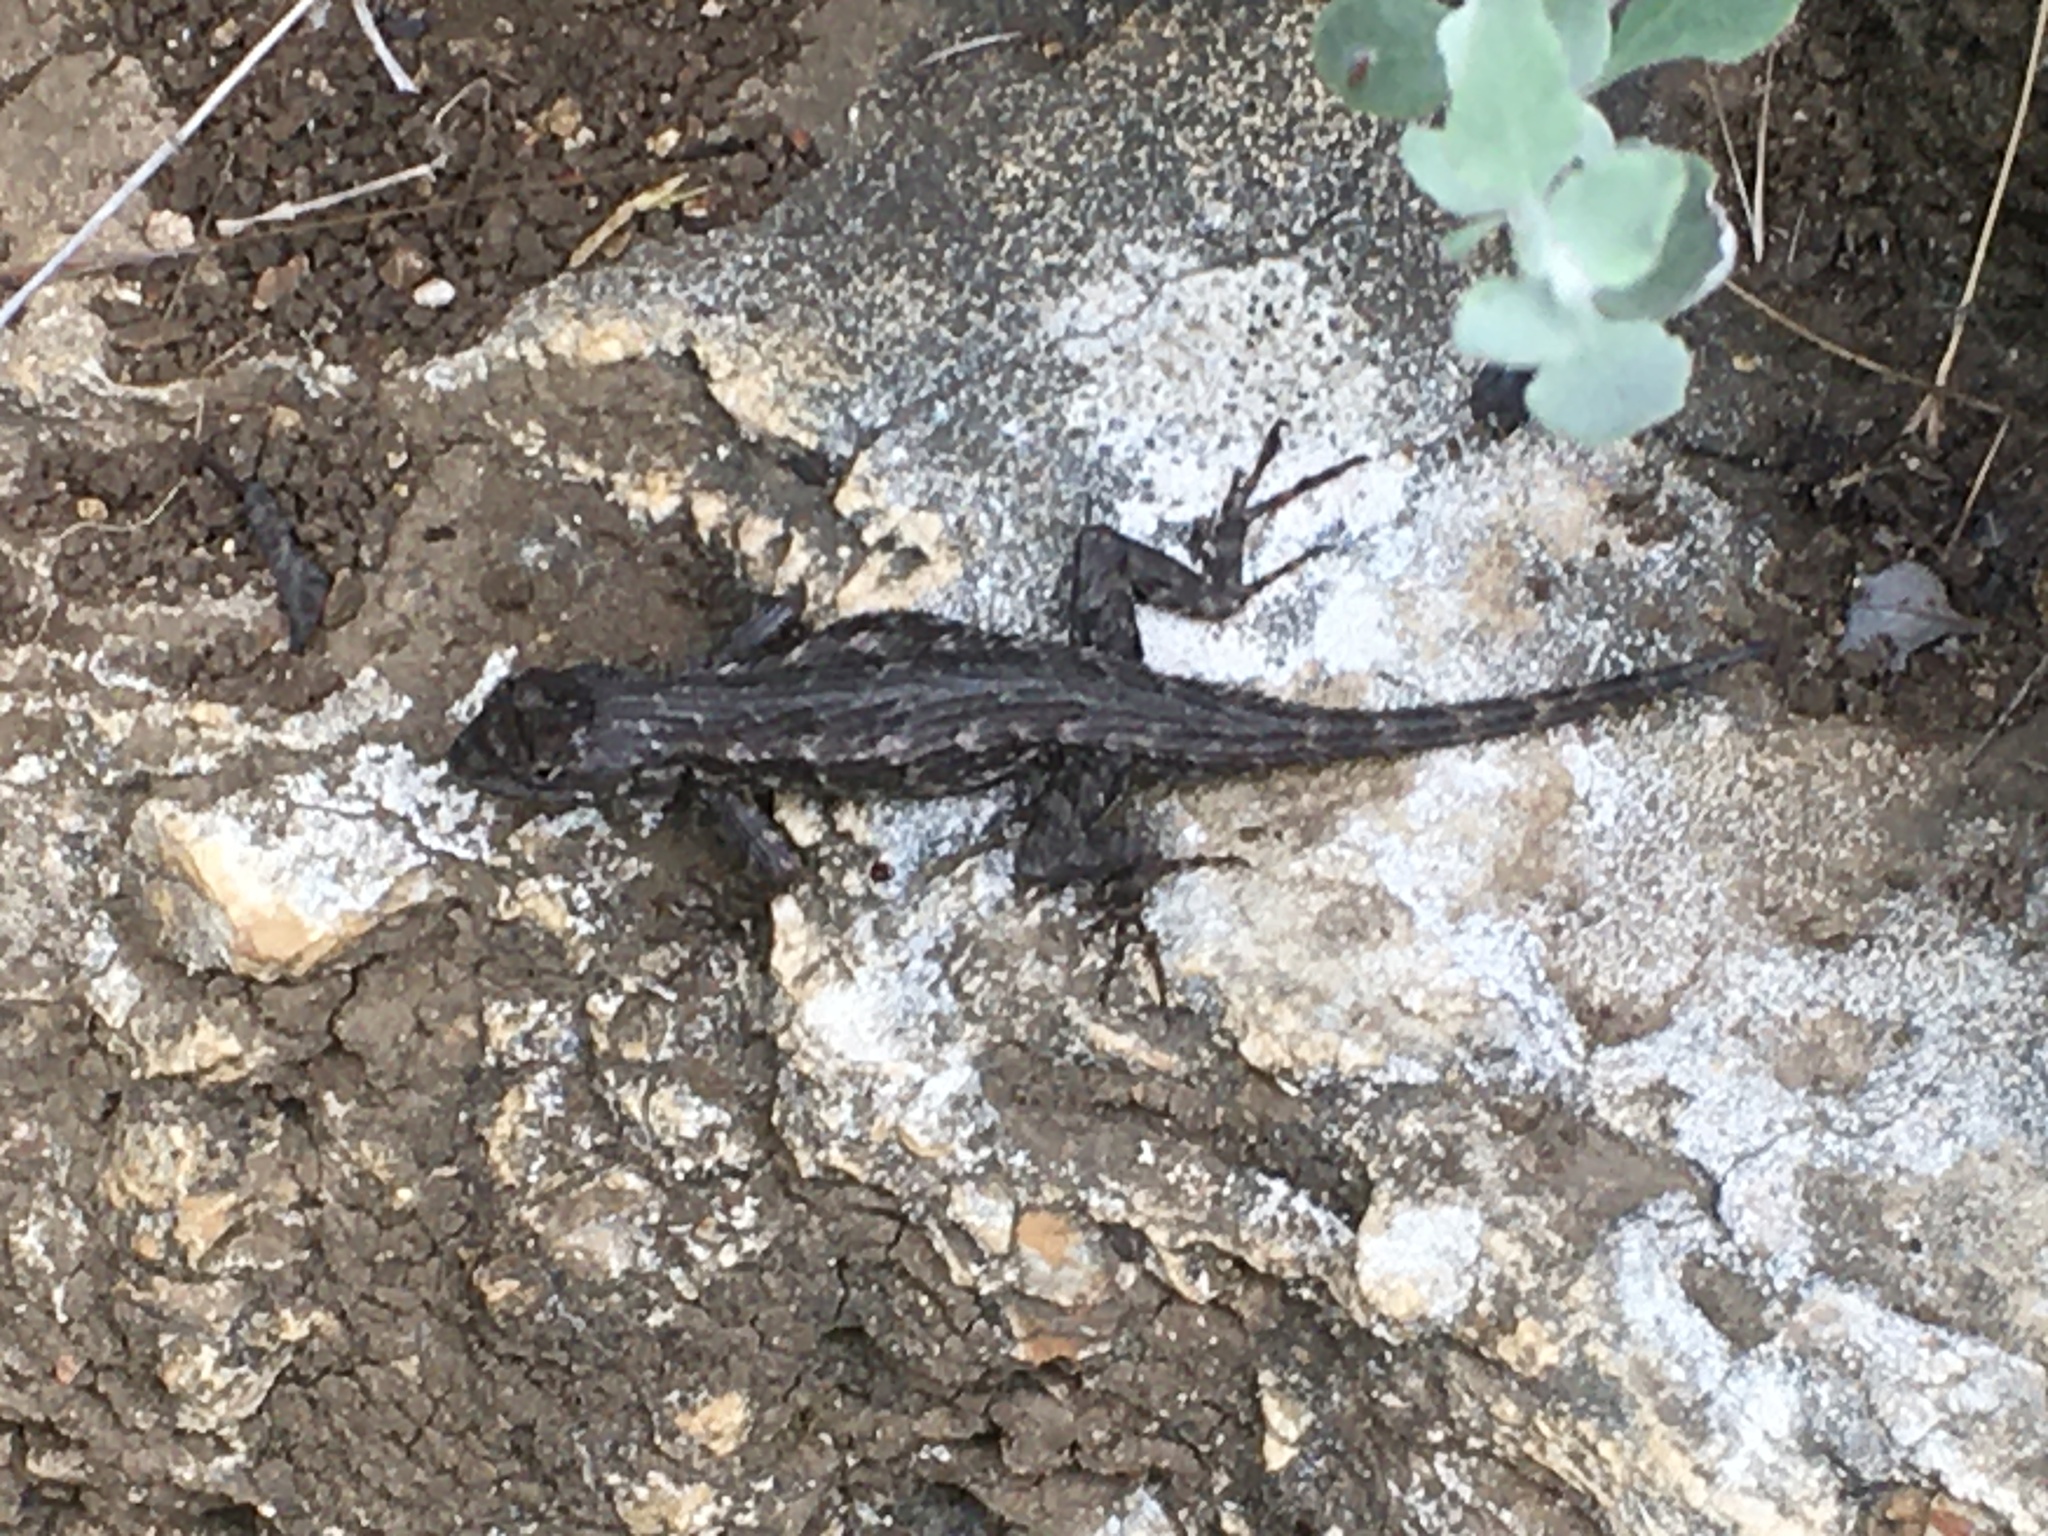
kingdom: Animalia
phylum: Chordata
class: Squamata
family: Phrynosomatidae
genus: Sceloporus
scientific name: Sceloporus occidentalis
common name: Western fence lizard
